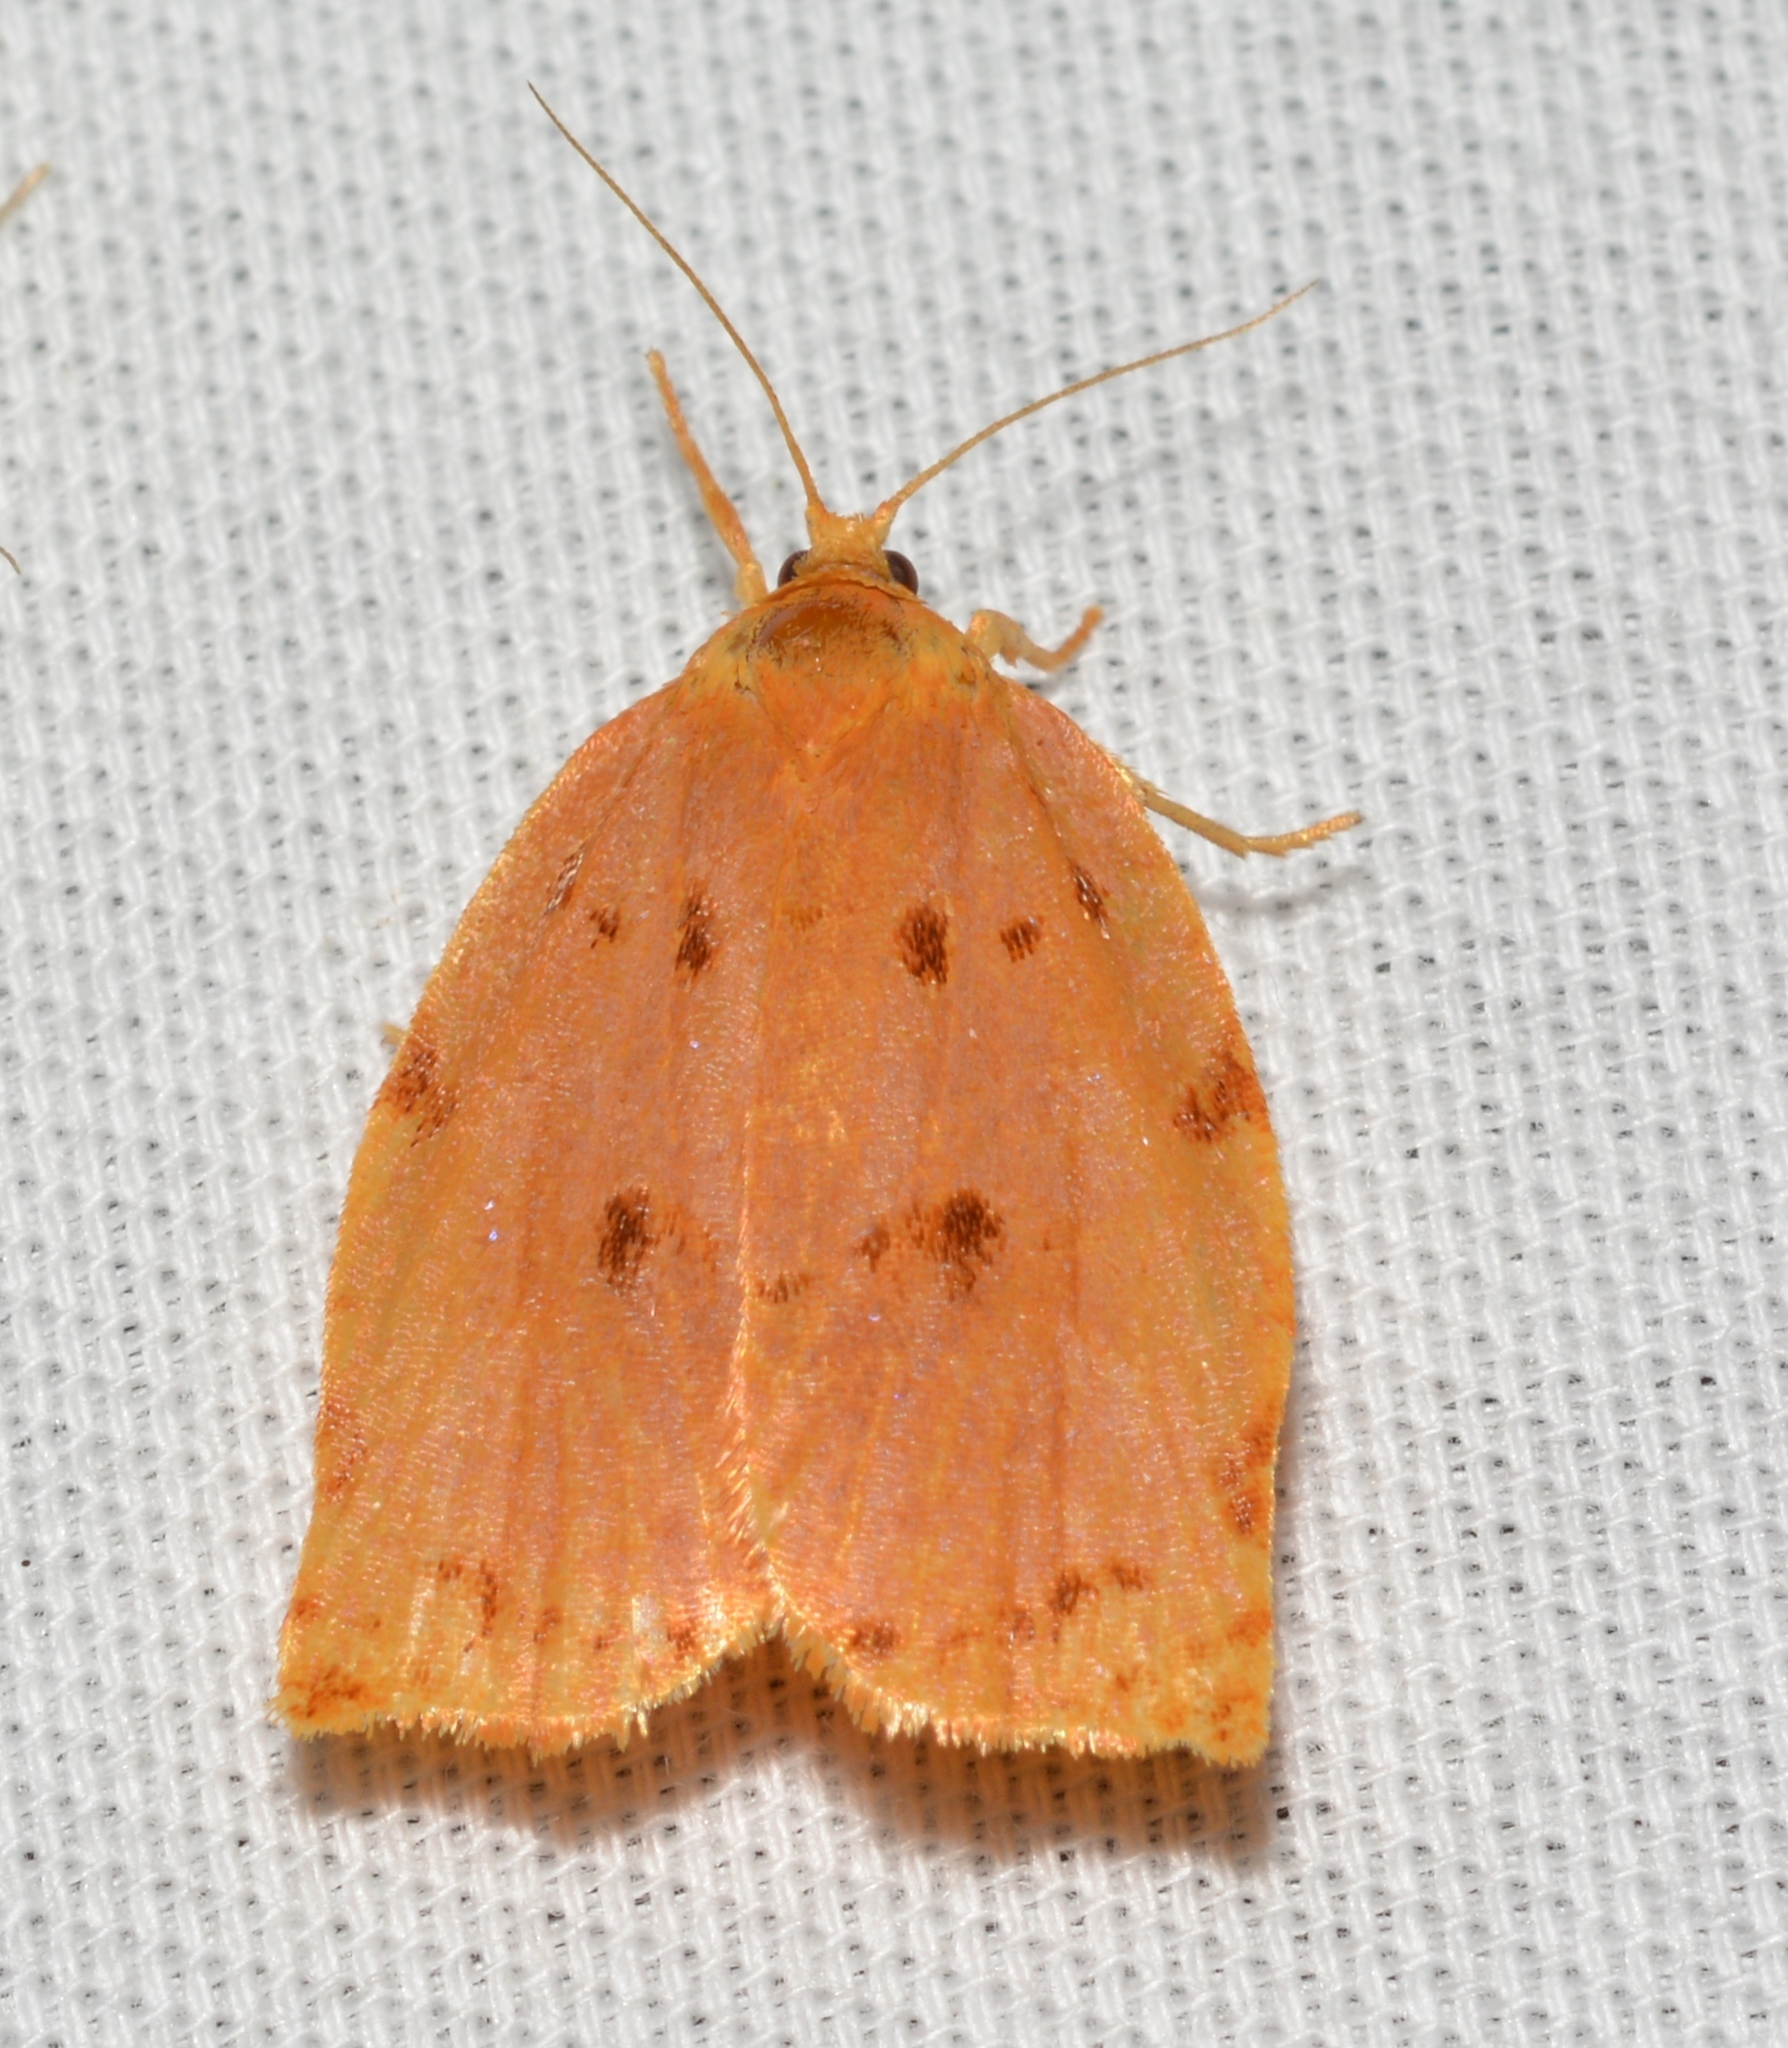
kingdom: Animalia
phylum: Arthropoda
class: Insecta
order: Lepidoptera
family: Tortricidae
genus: Archips
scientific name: Archips rileyana
